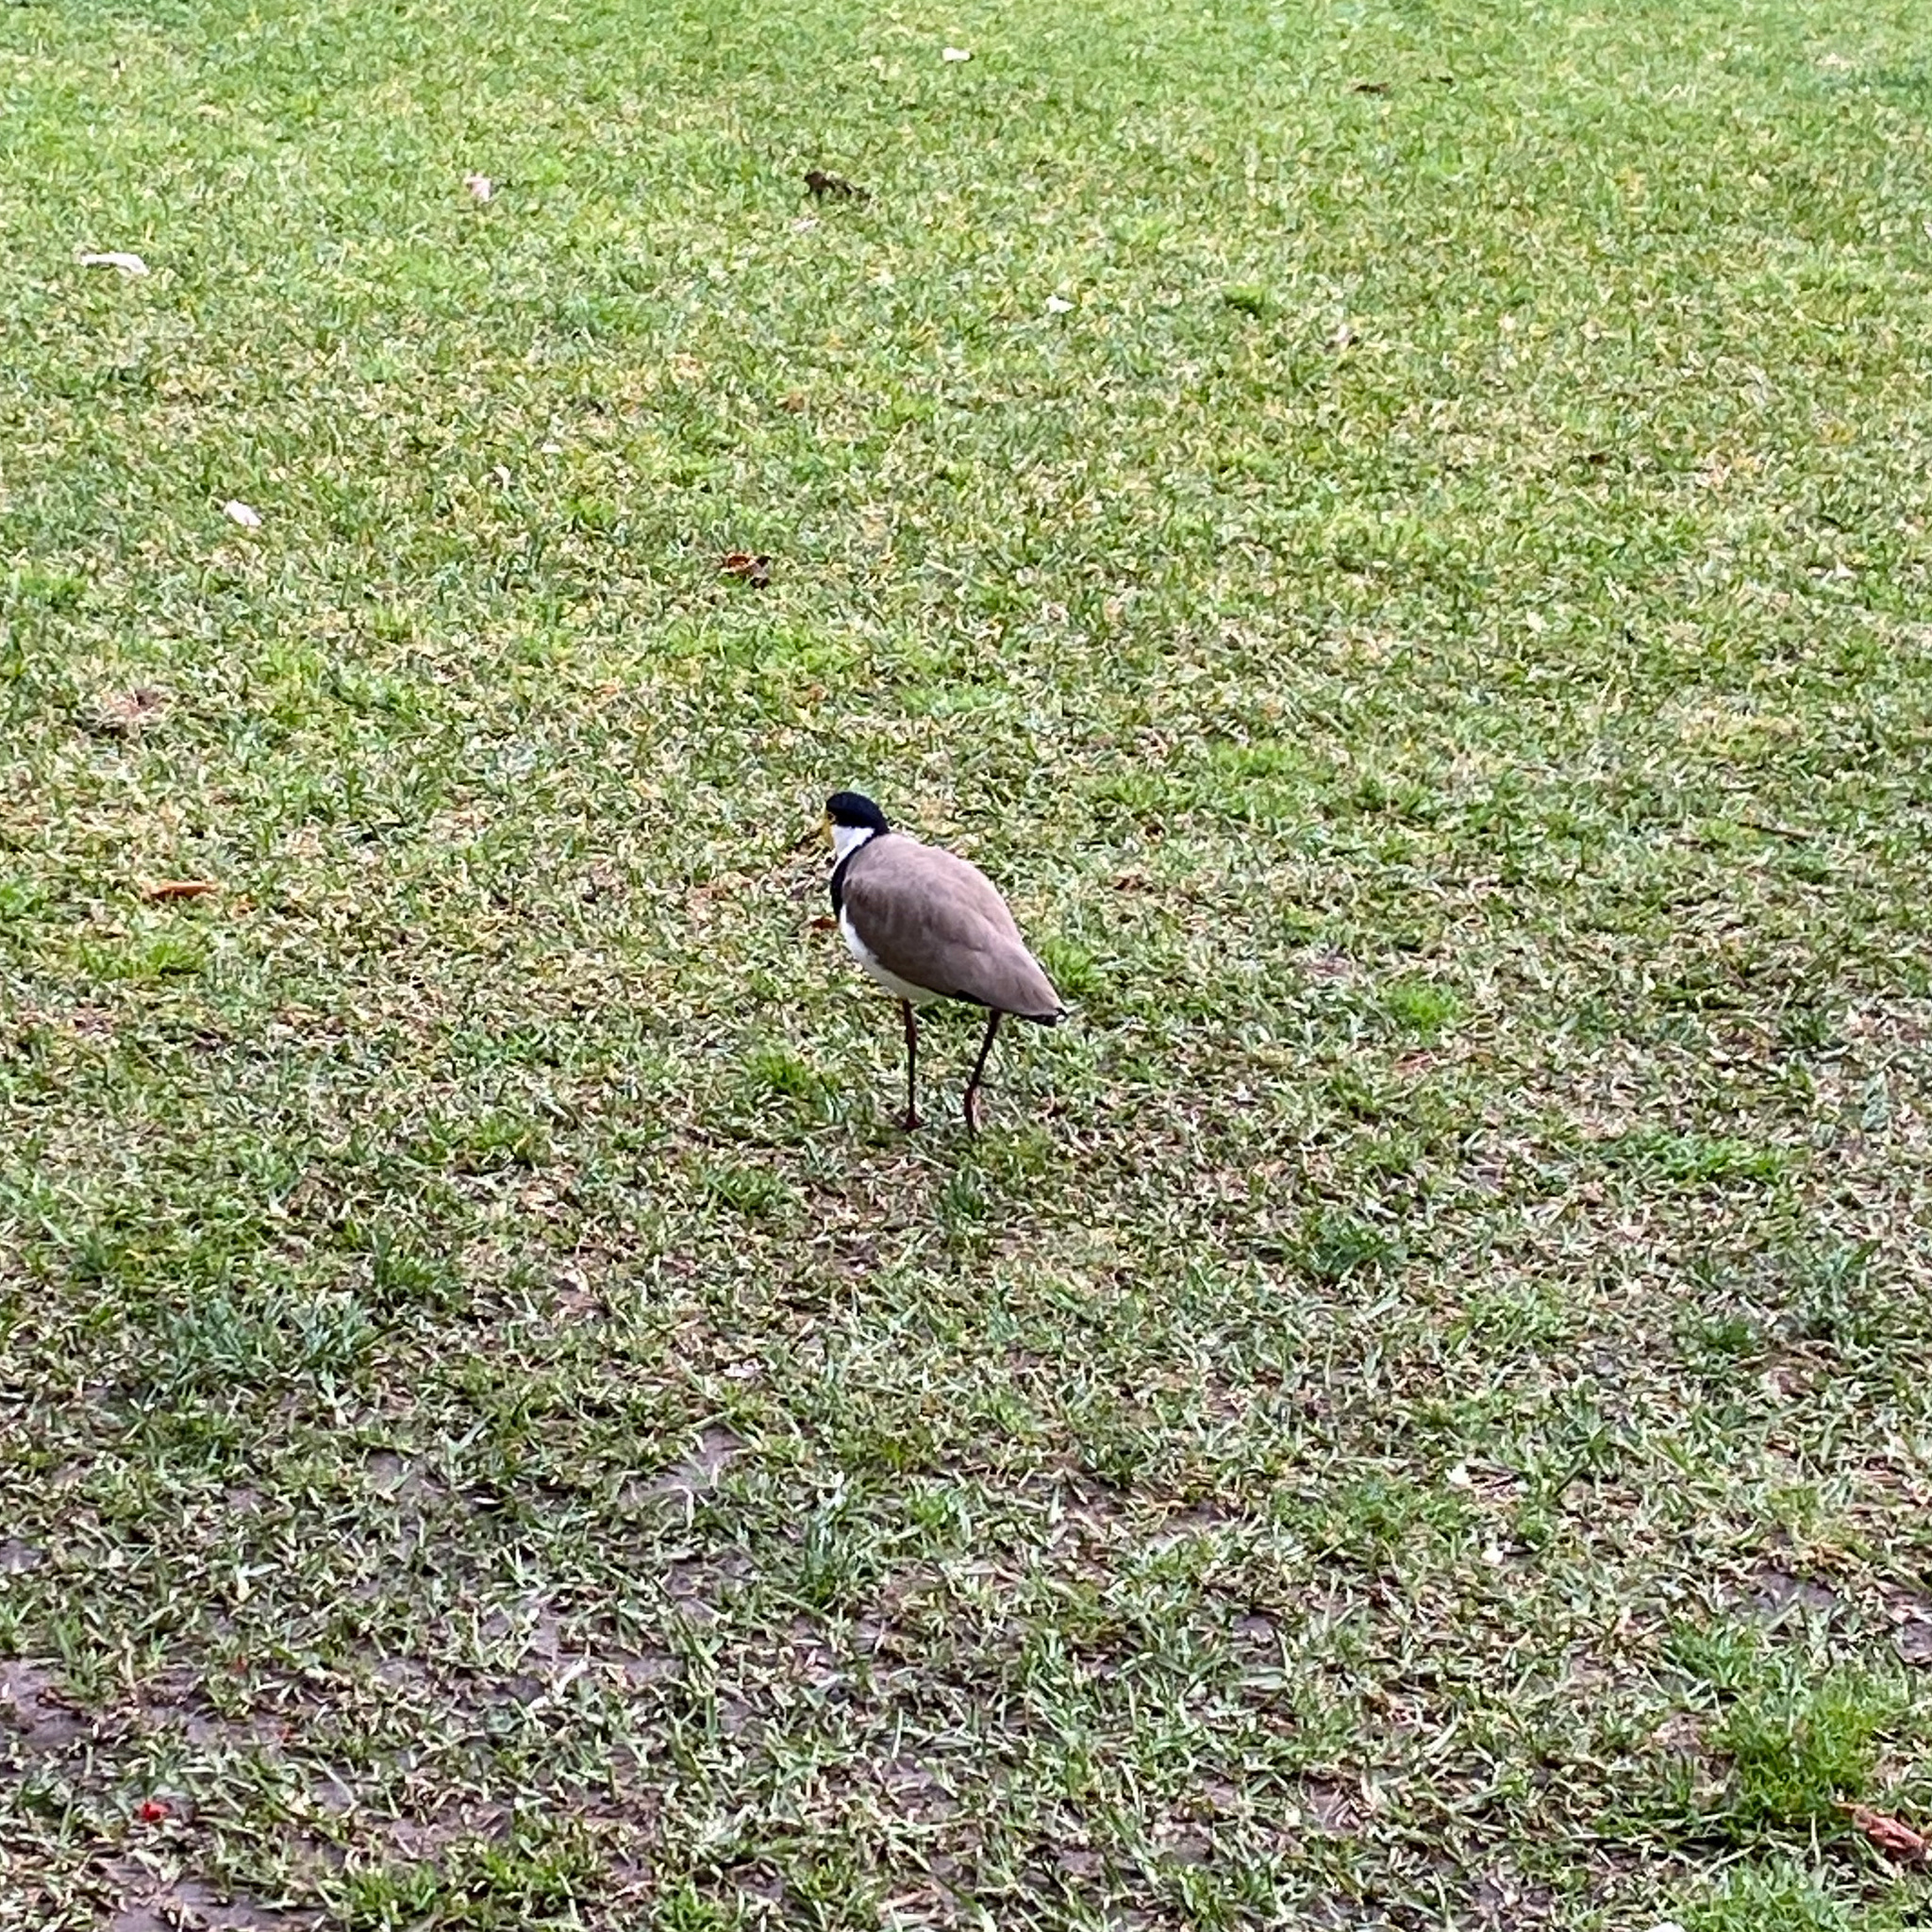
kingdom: Animalia
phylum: Chordata
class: Aves
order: Charadriiformes
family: Charadriidae
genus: Vanellus
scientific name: Vanellus miles
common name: Masked lapwing
